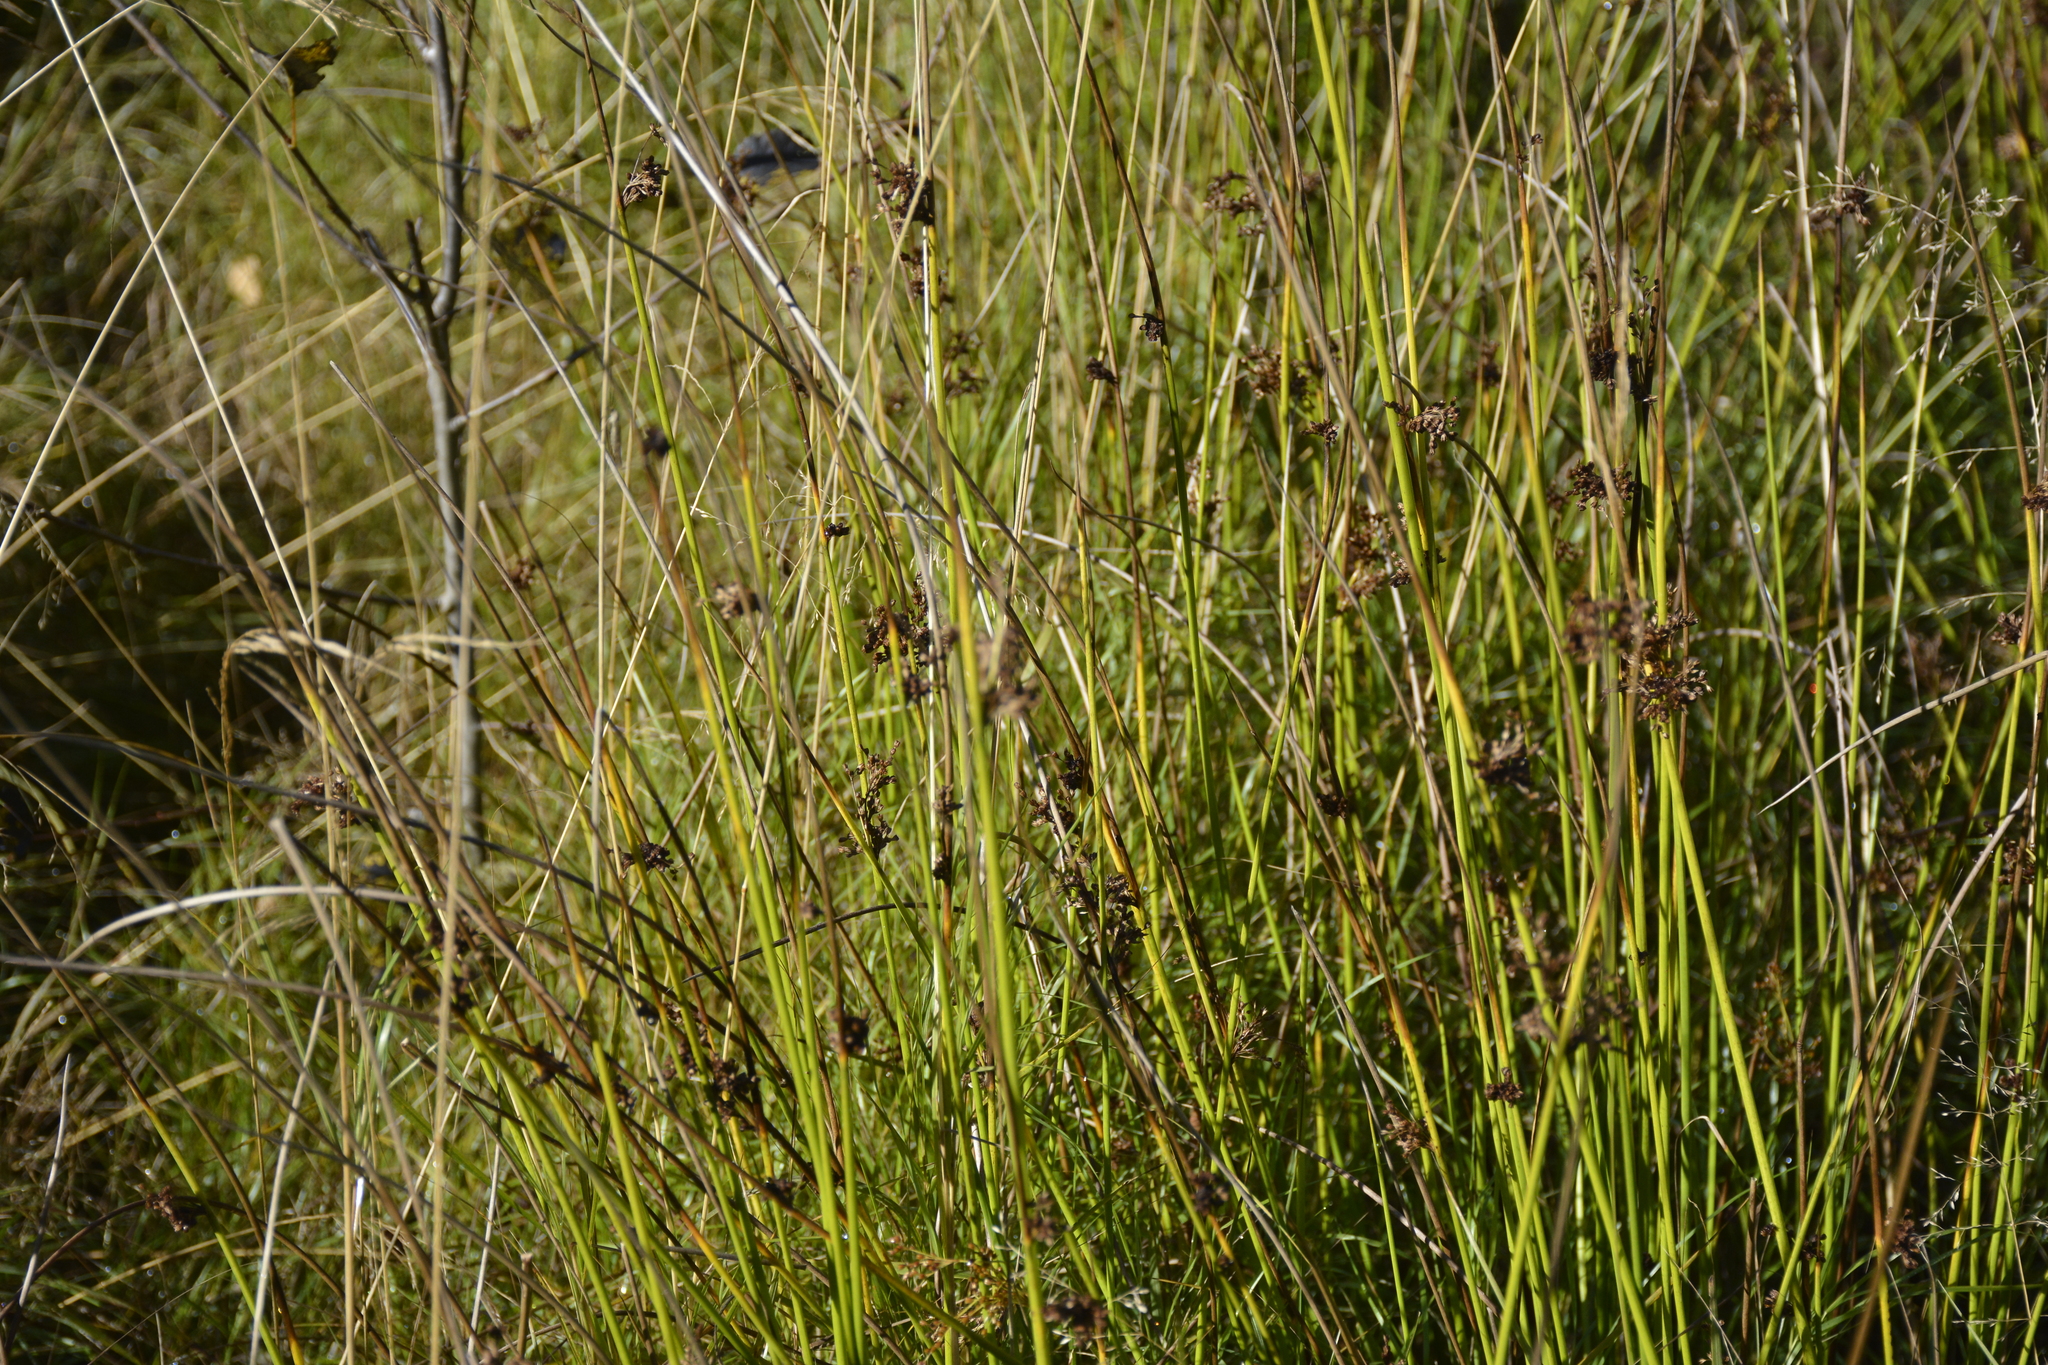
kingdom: Plantae
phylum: Tracheophyta
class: Liliopsida
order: Poales
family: Juncaceae
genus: Juncus
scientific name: Juncus effusus
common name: Soft rush
